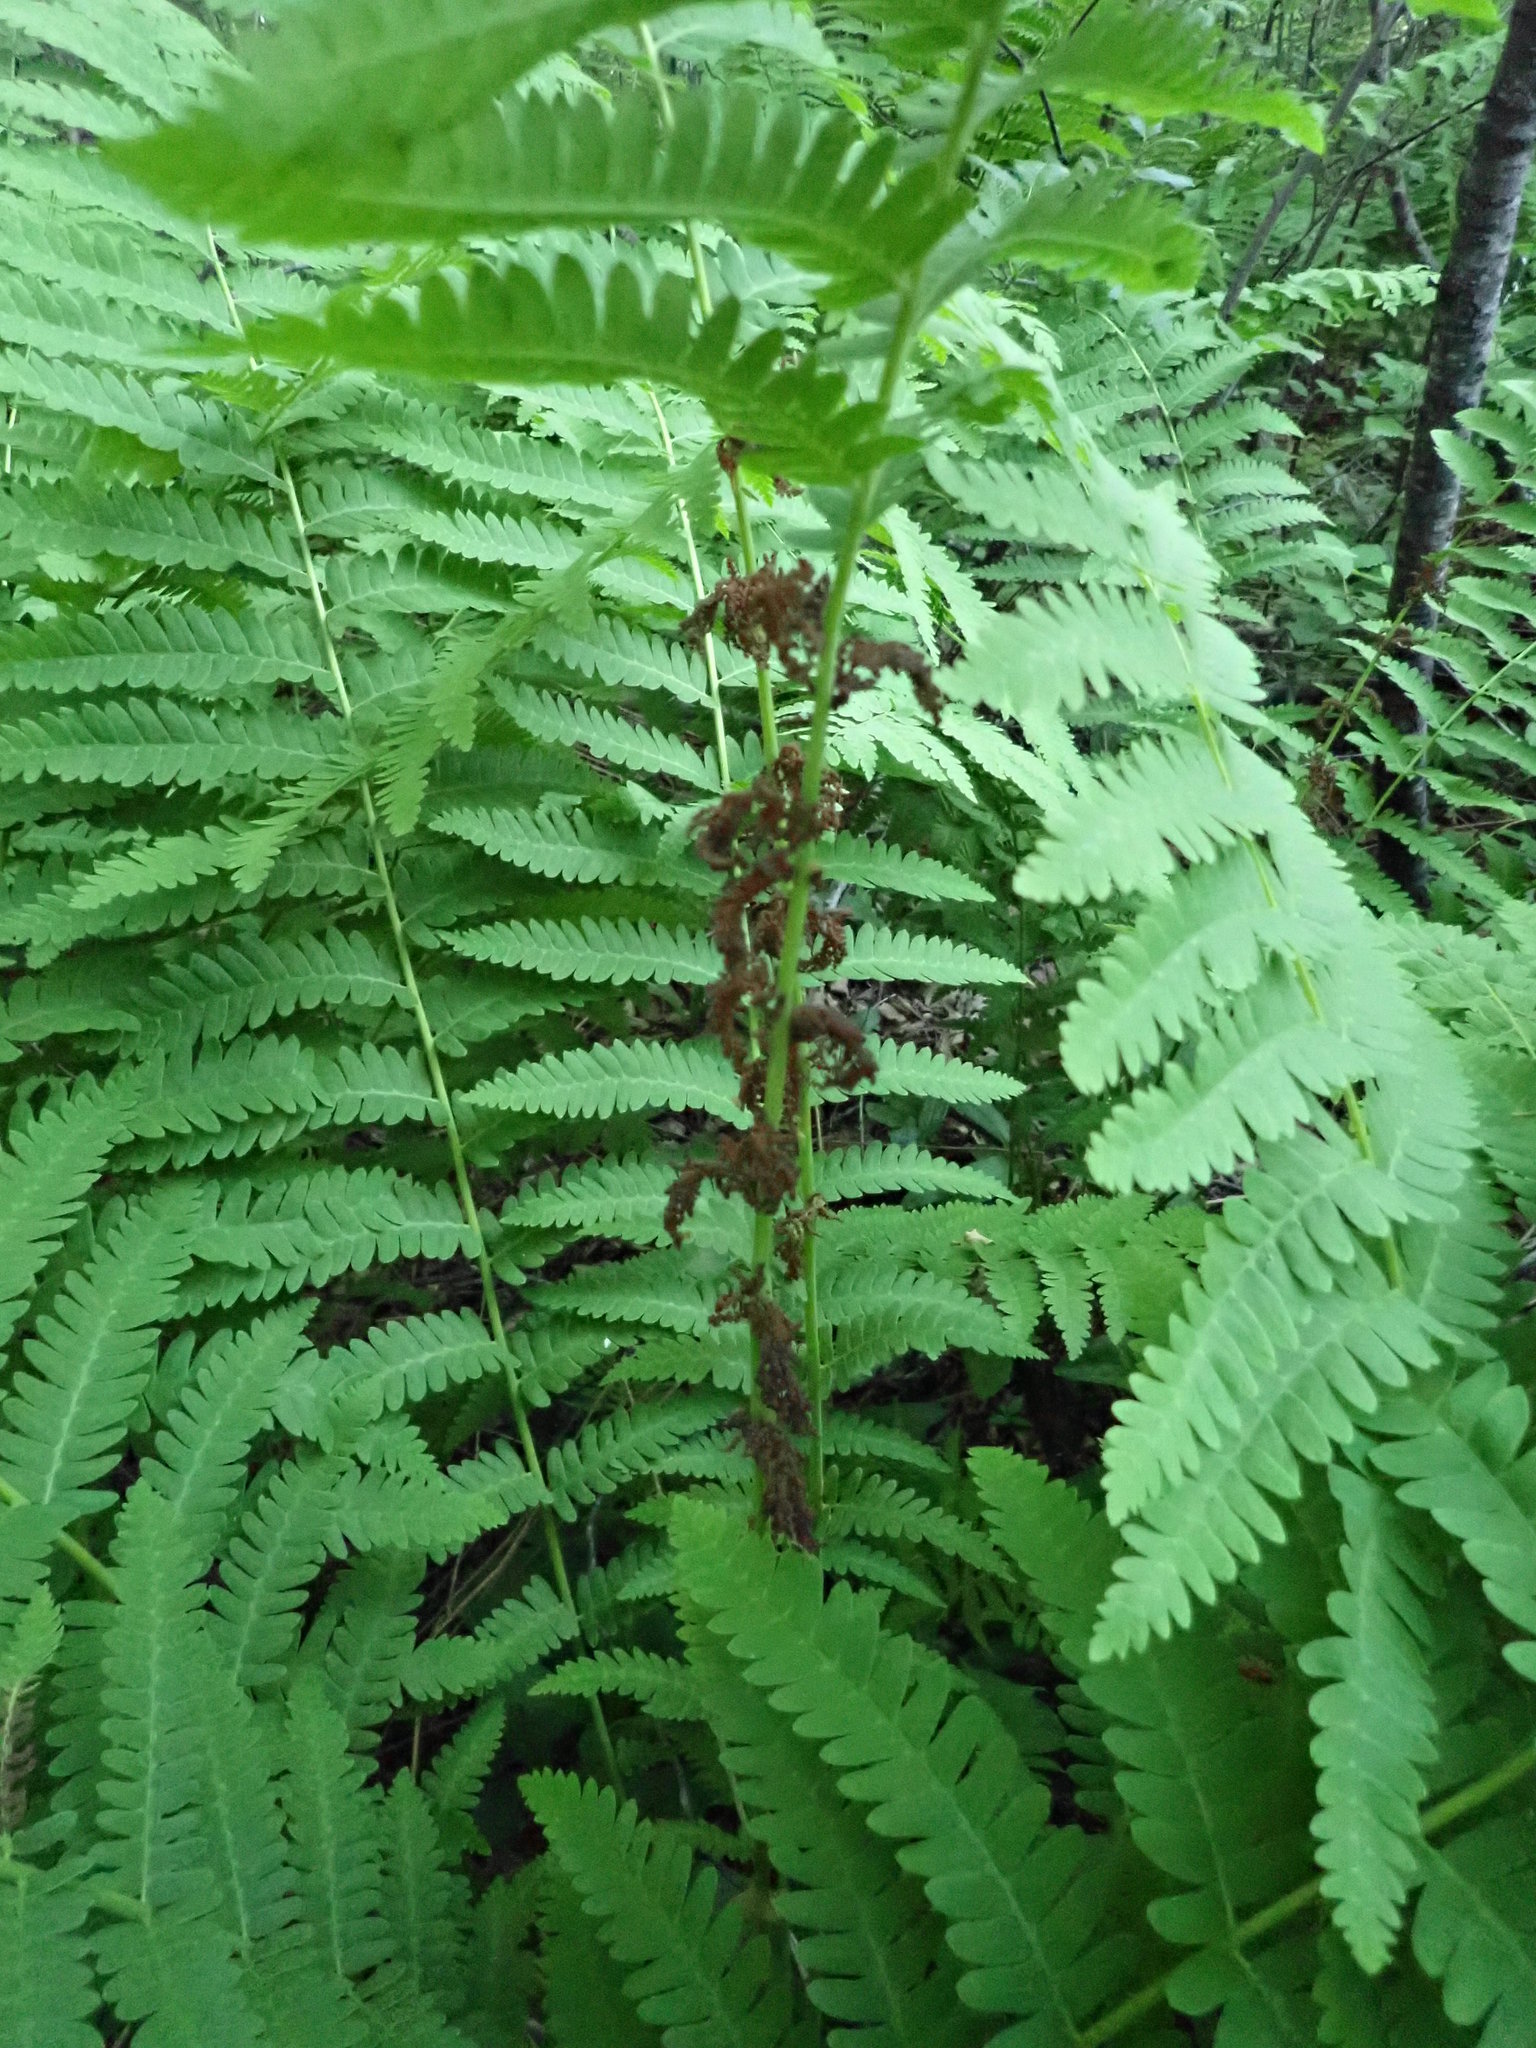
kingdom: Plantae
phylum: Tracheophyta
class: Polypodiopsida
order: Osmundales
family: Osmundaceae
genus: Claytosmunda
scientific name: Claytosmunda claytoniana
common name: Clayton's fern
